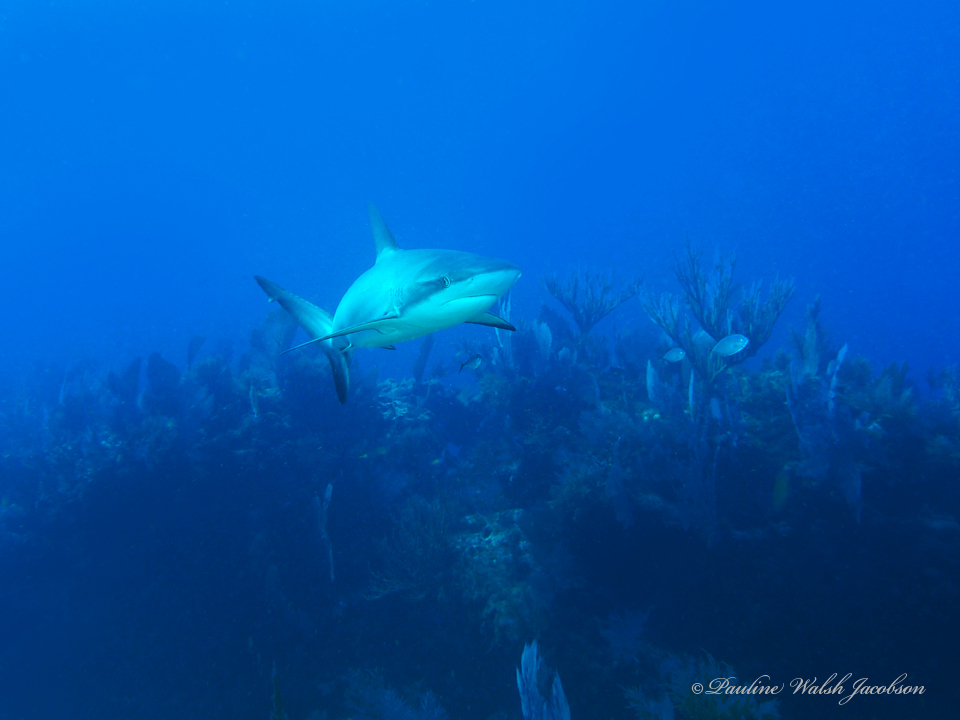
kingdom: Animalia
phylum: Chordata
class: Elasmobranchii
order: Carcharhiniformes
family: Carcharhinidae
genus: Carcharhinus
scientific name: Carcharhinus perezii
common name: Reef shark
